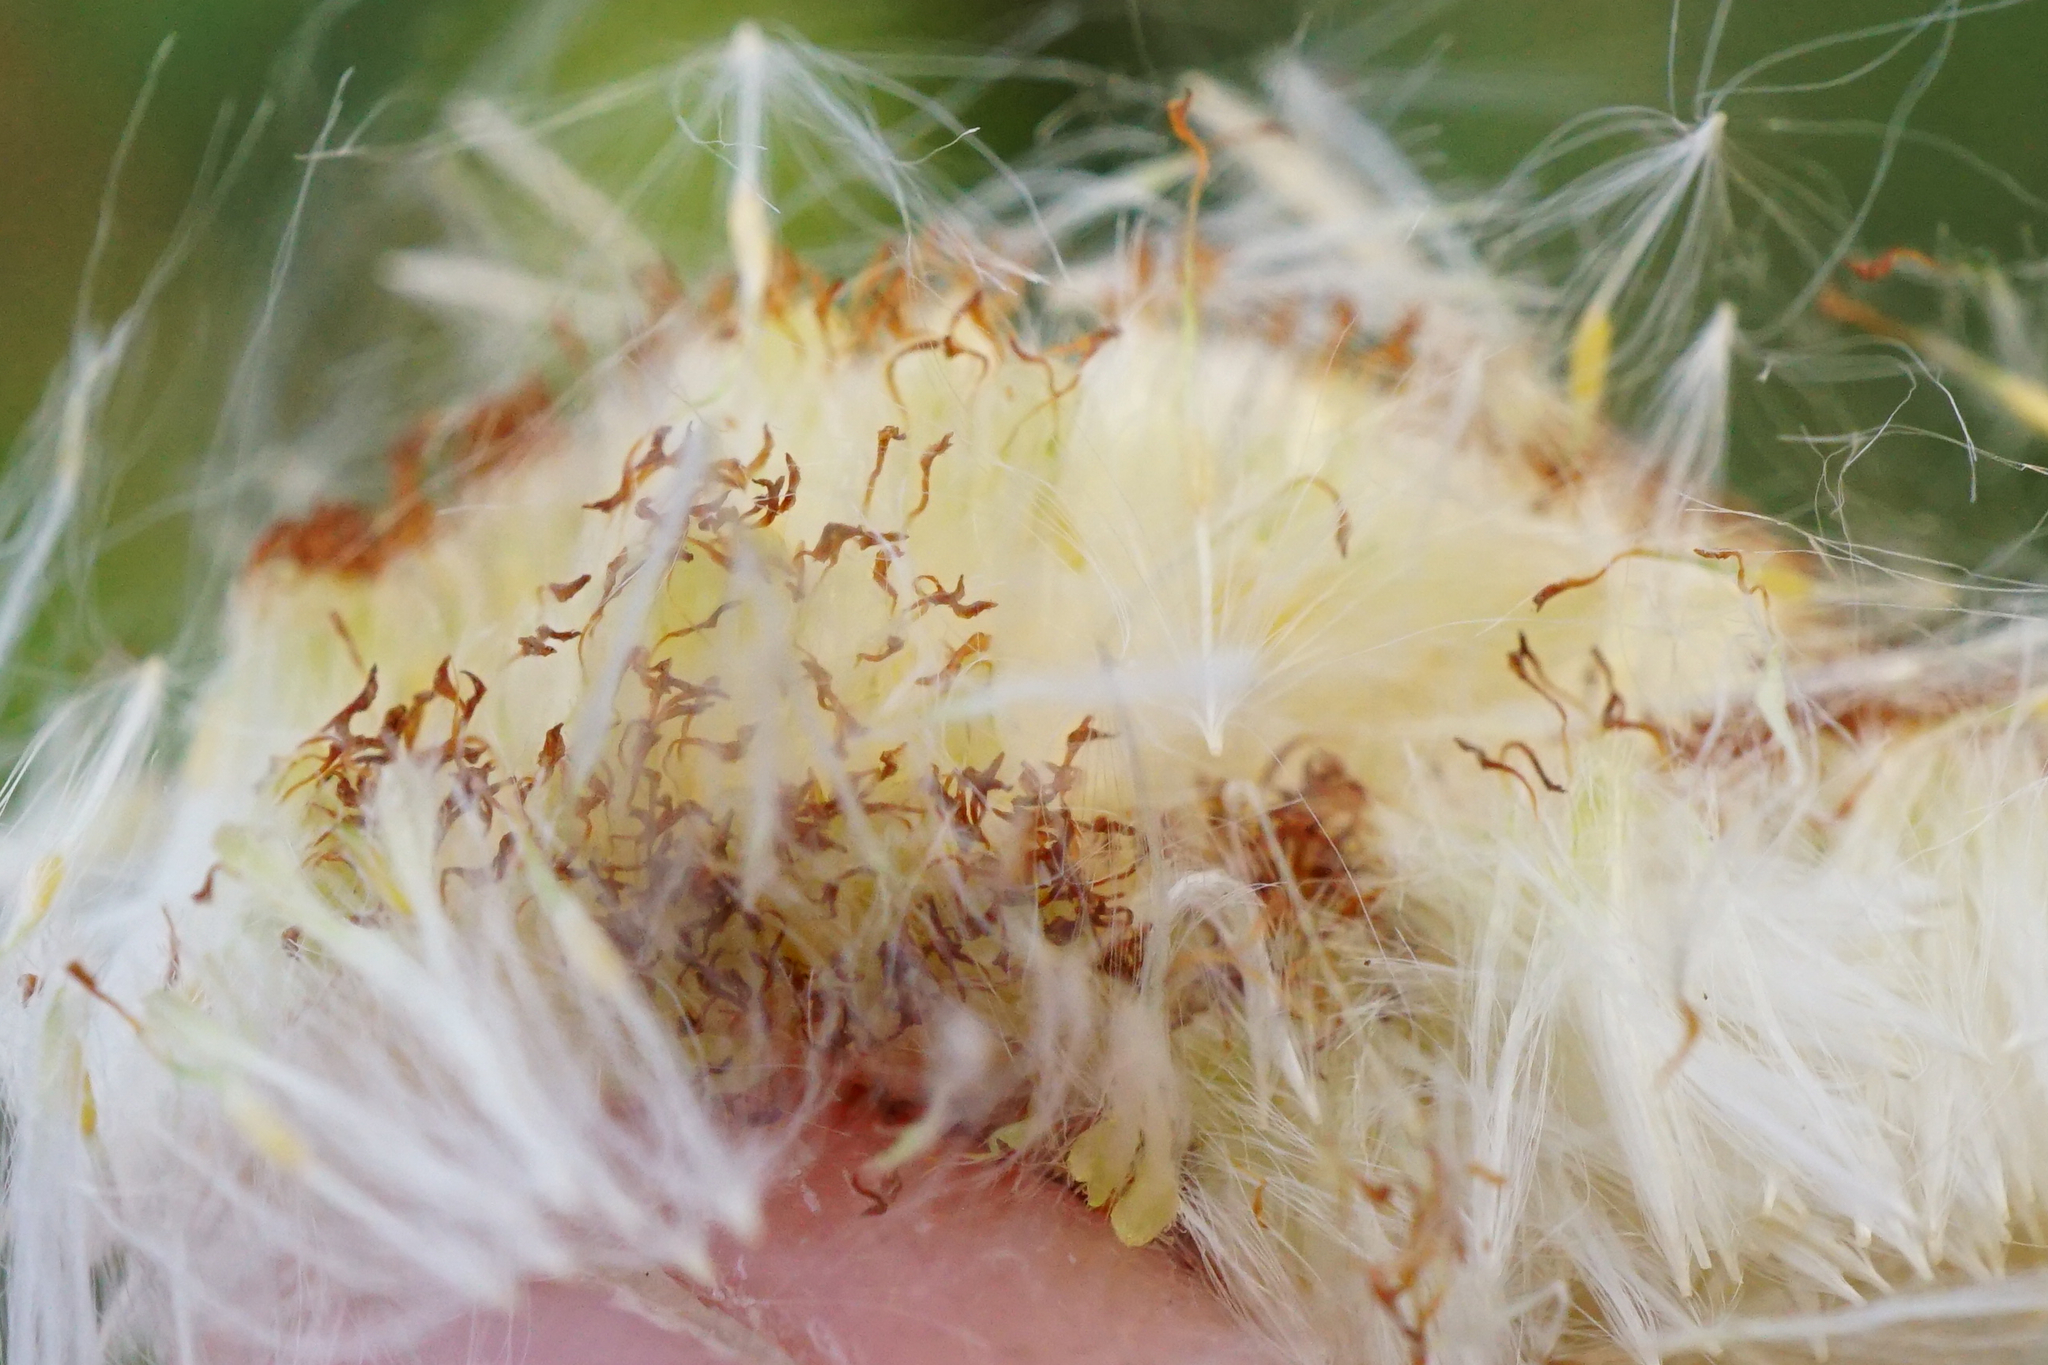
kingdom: Plantae
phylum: Tracheophyta
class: Liliopsida
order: Poales
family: Typhaceae
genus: Typha
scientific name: Typha laxmannii
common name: Laxman’s bulrush
